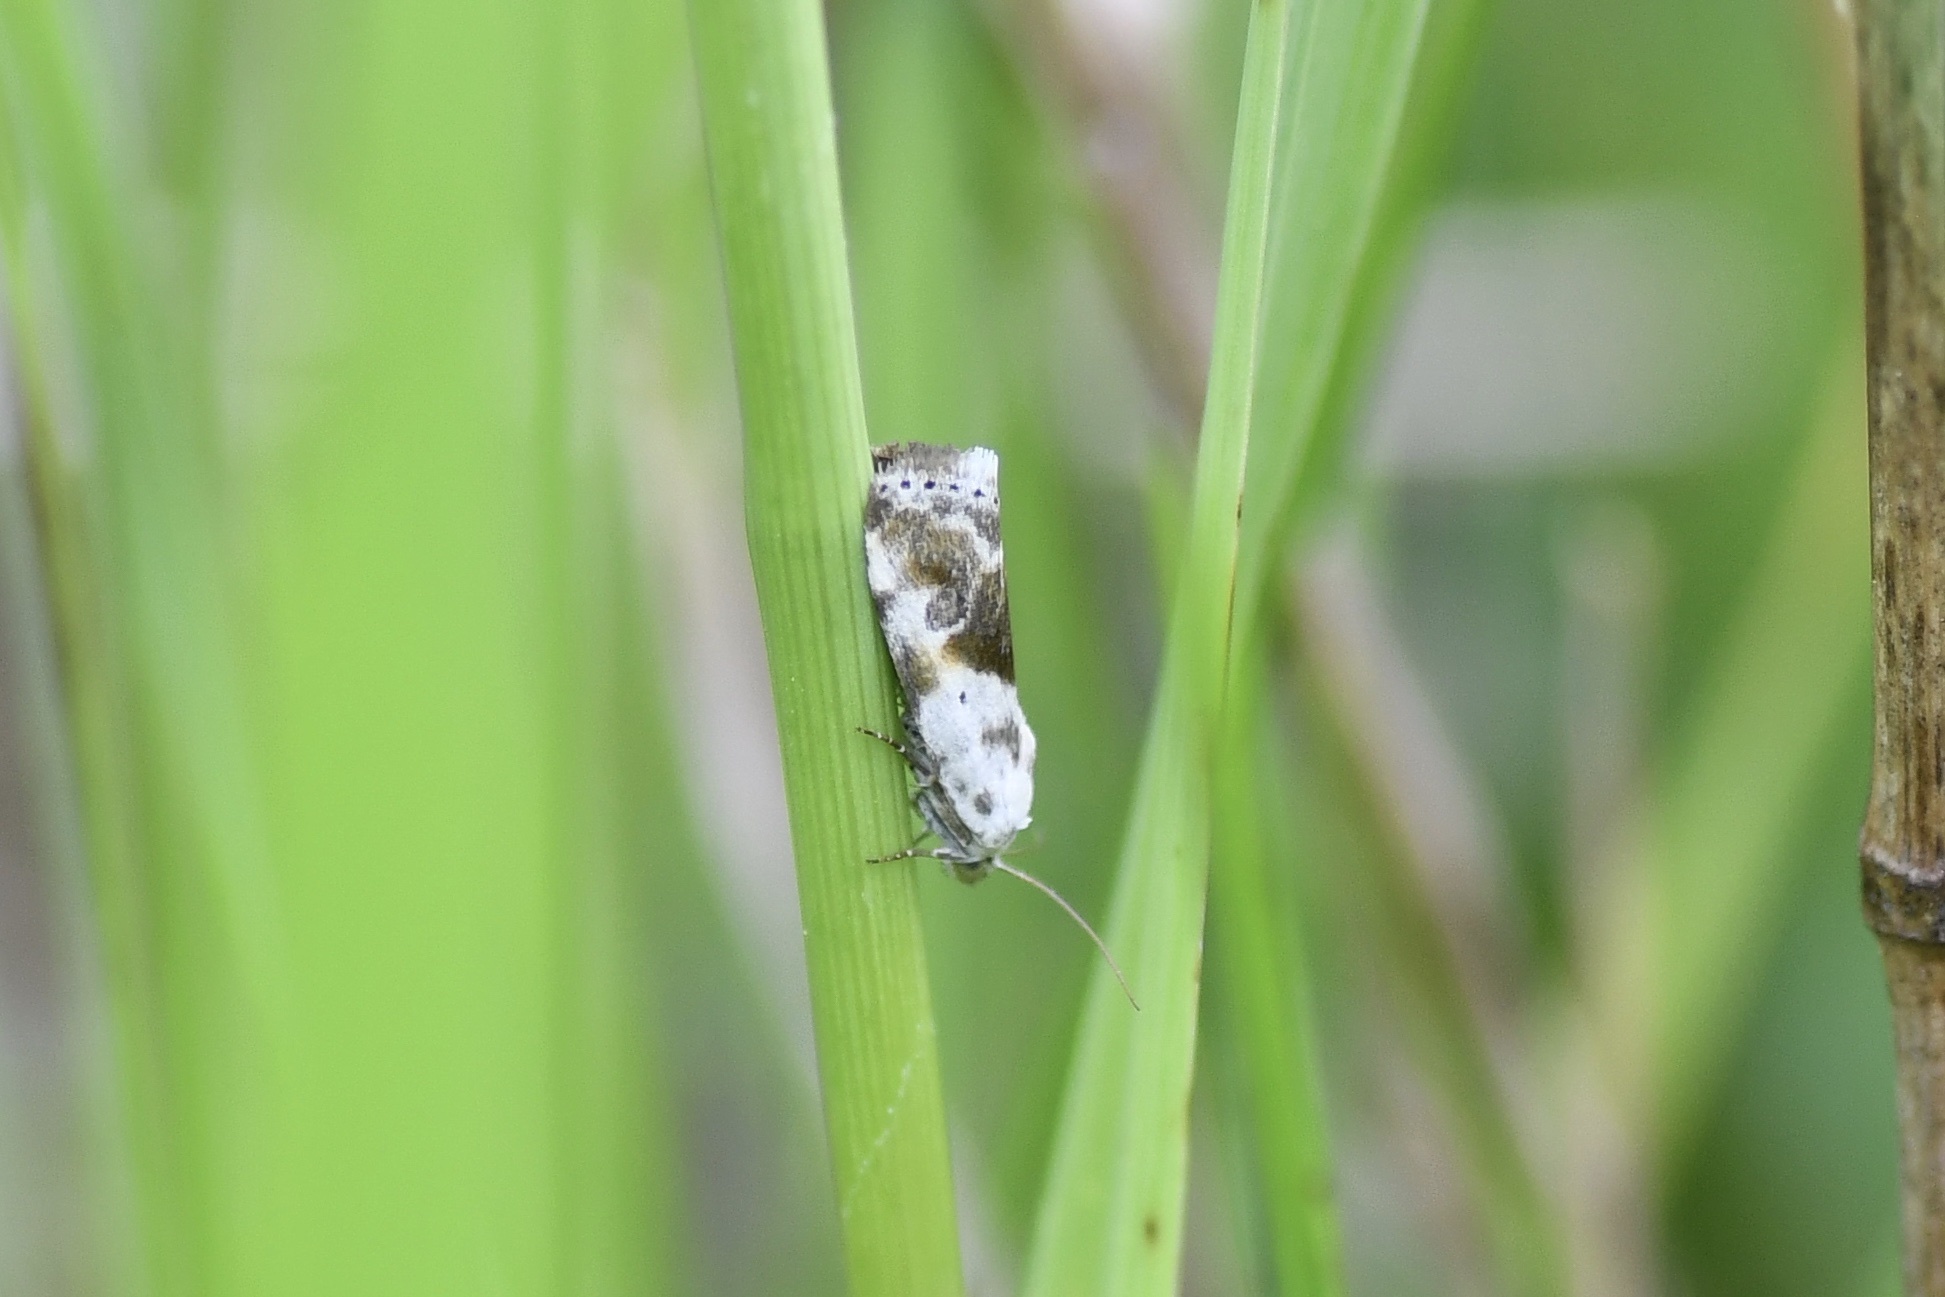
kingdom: Animalia
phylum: Arthropoda
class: Insecta
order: Lepidoptera
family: Noctuidae
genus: Acontia
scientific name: Acontia candefacta
